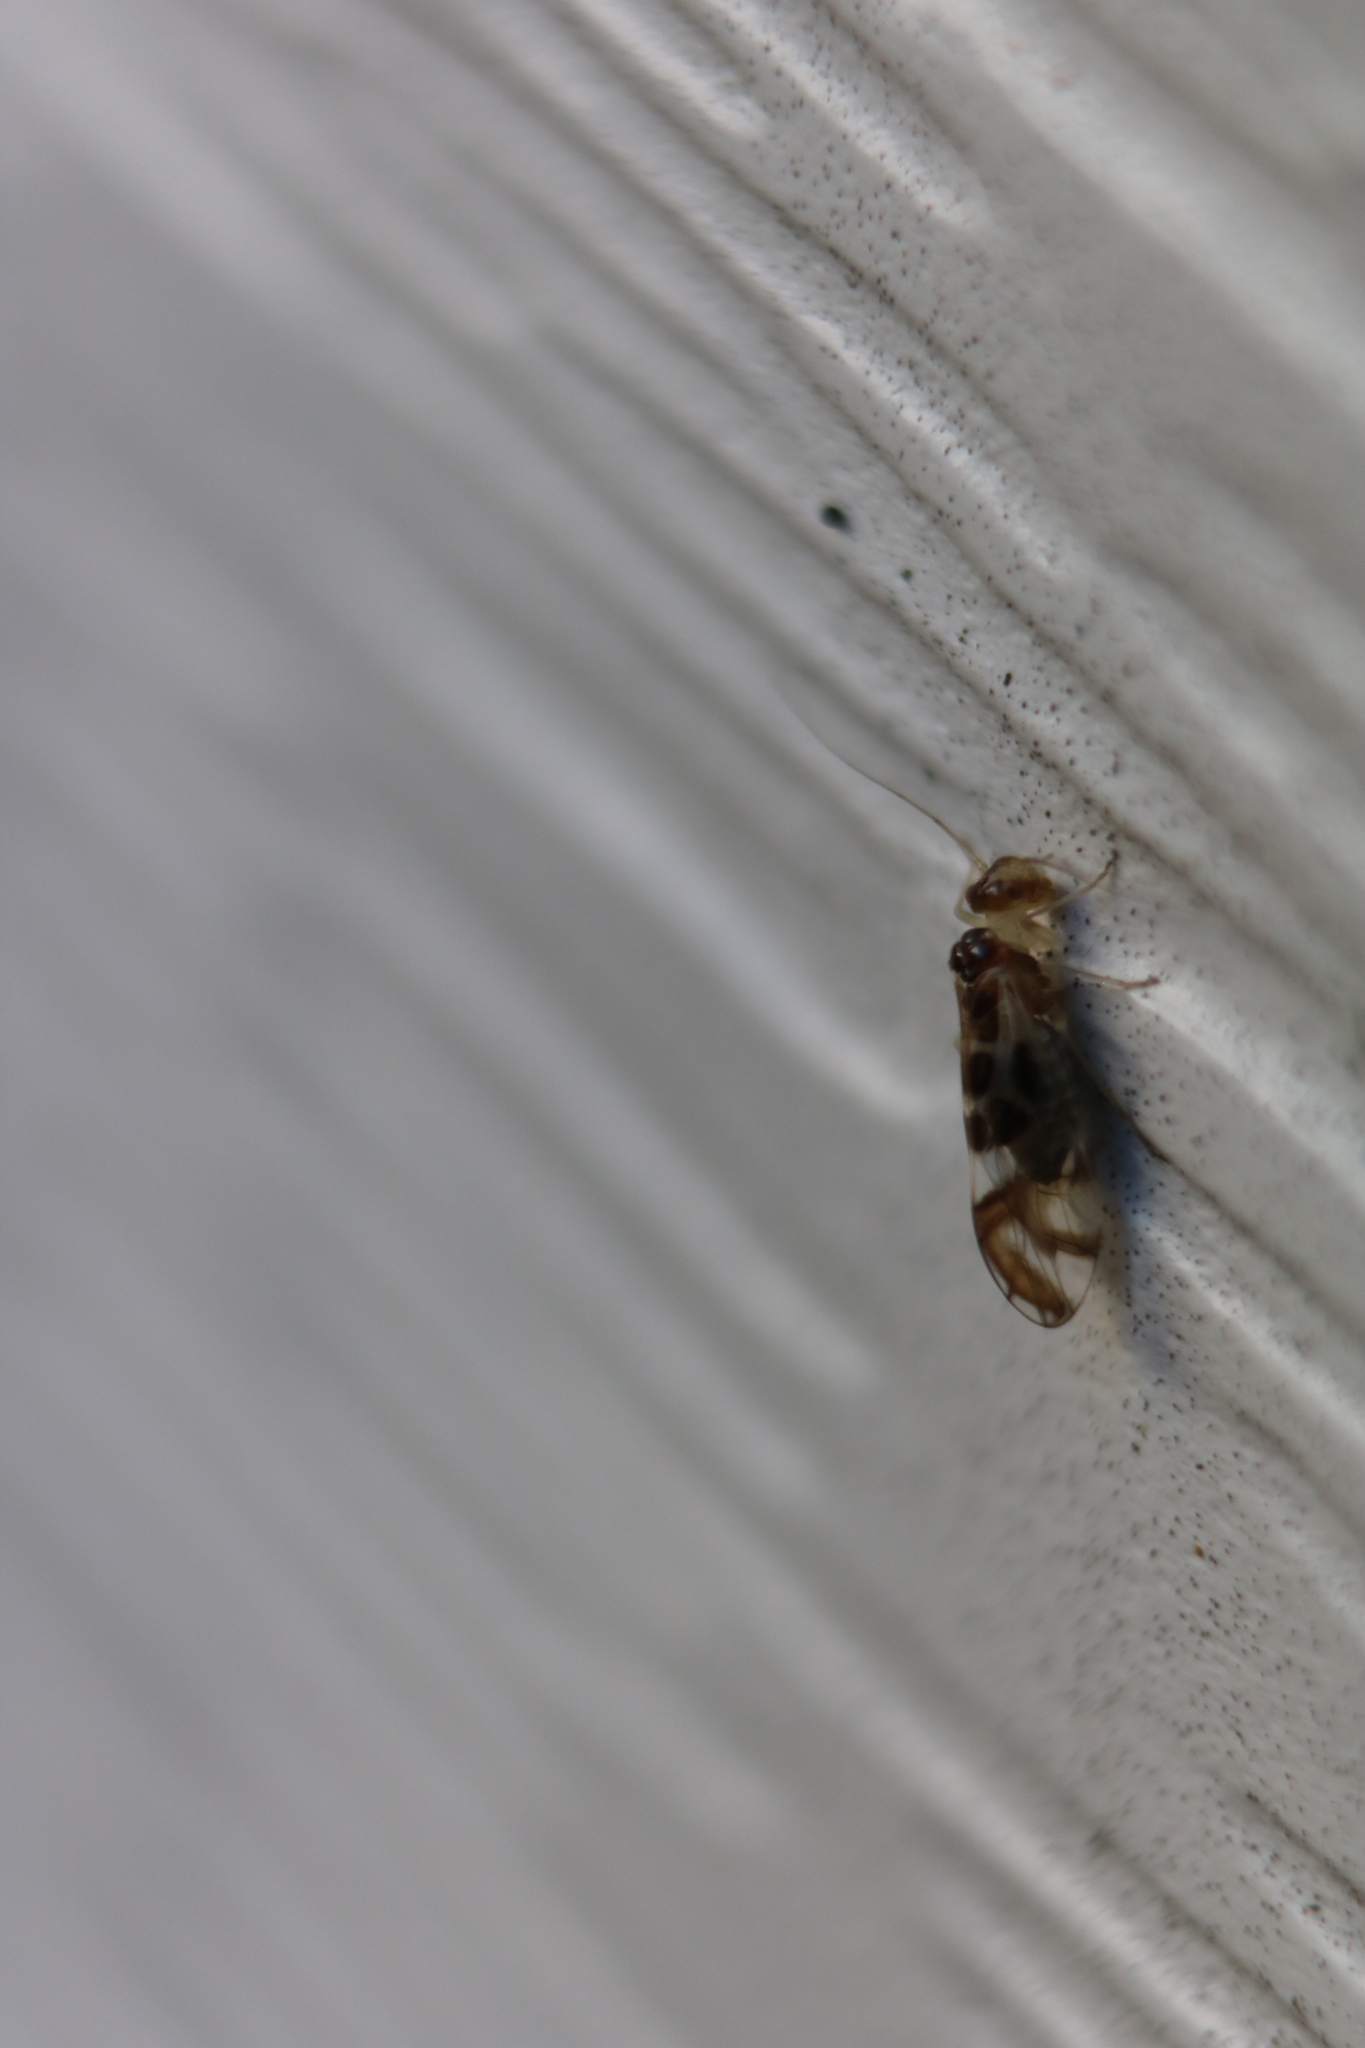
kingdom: Animalia
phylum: Arthropoda
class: Insecta
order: Psocodea
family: Stenopsocidae
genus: Graphopsocus
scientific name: Graphopsocus cruciatus
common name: Lizard bark louse
